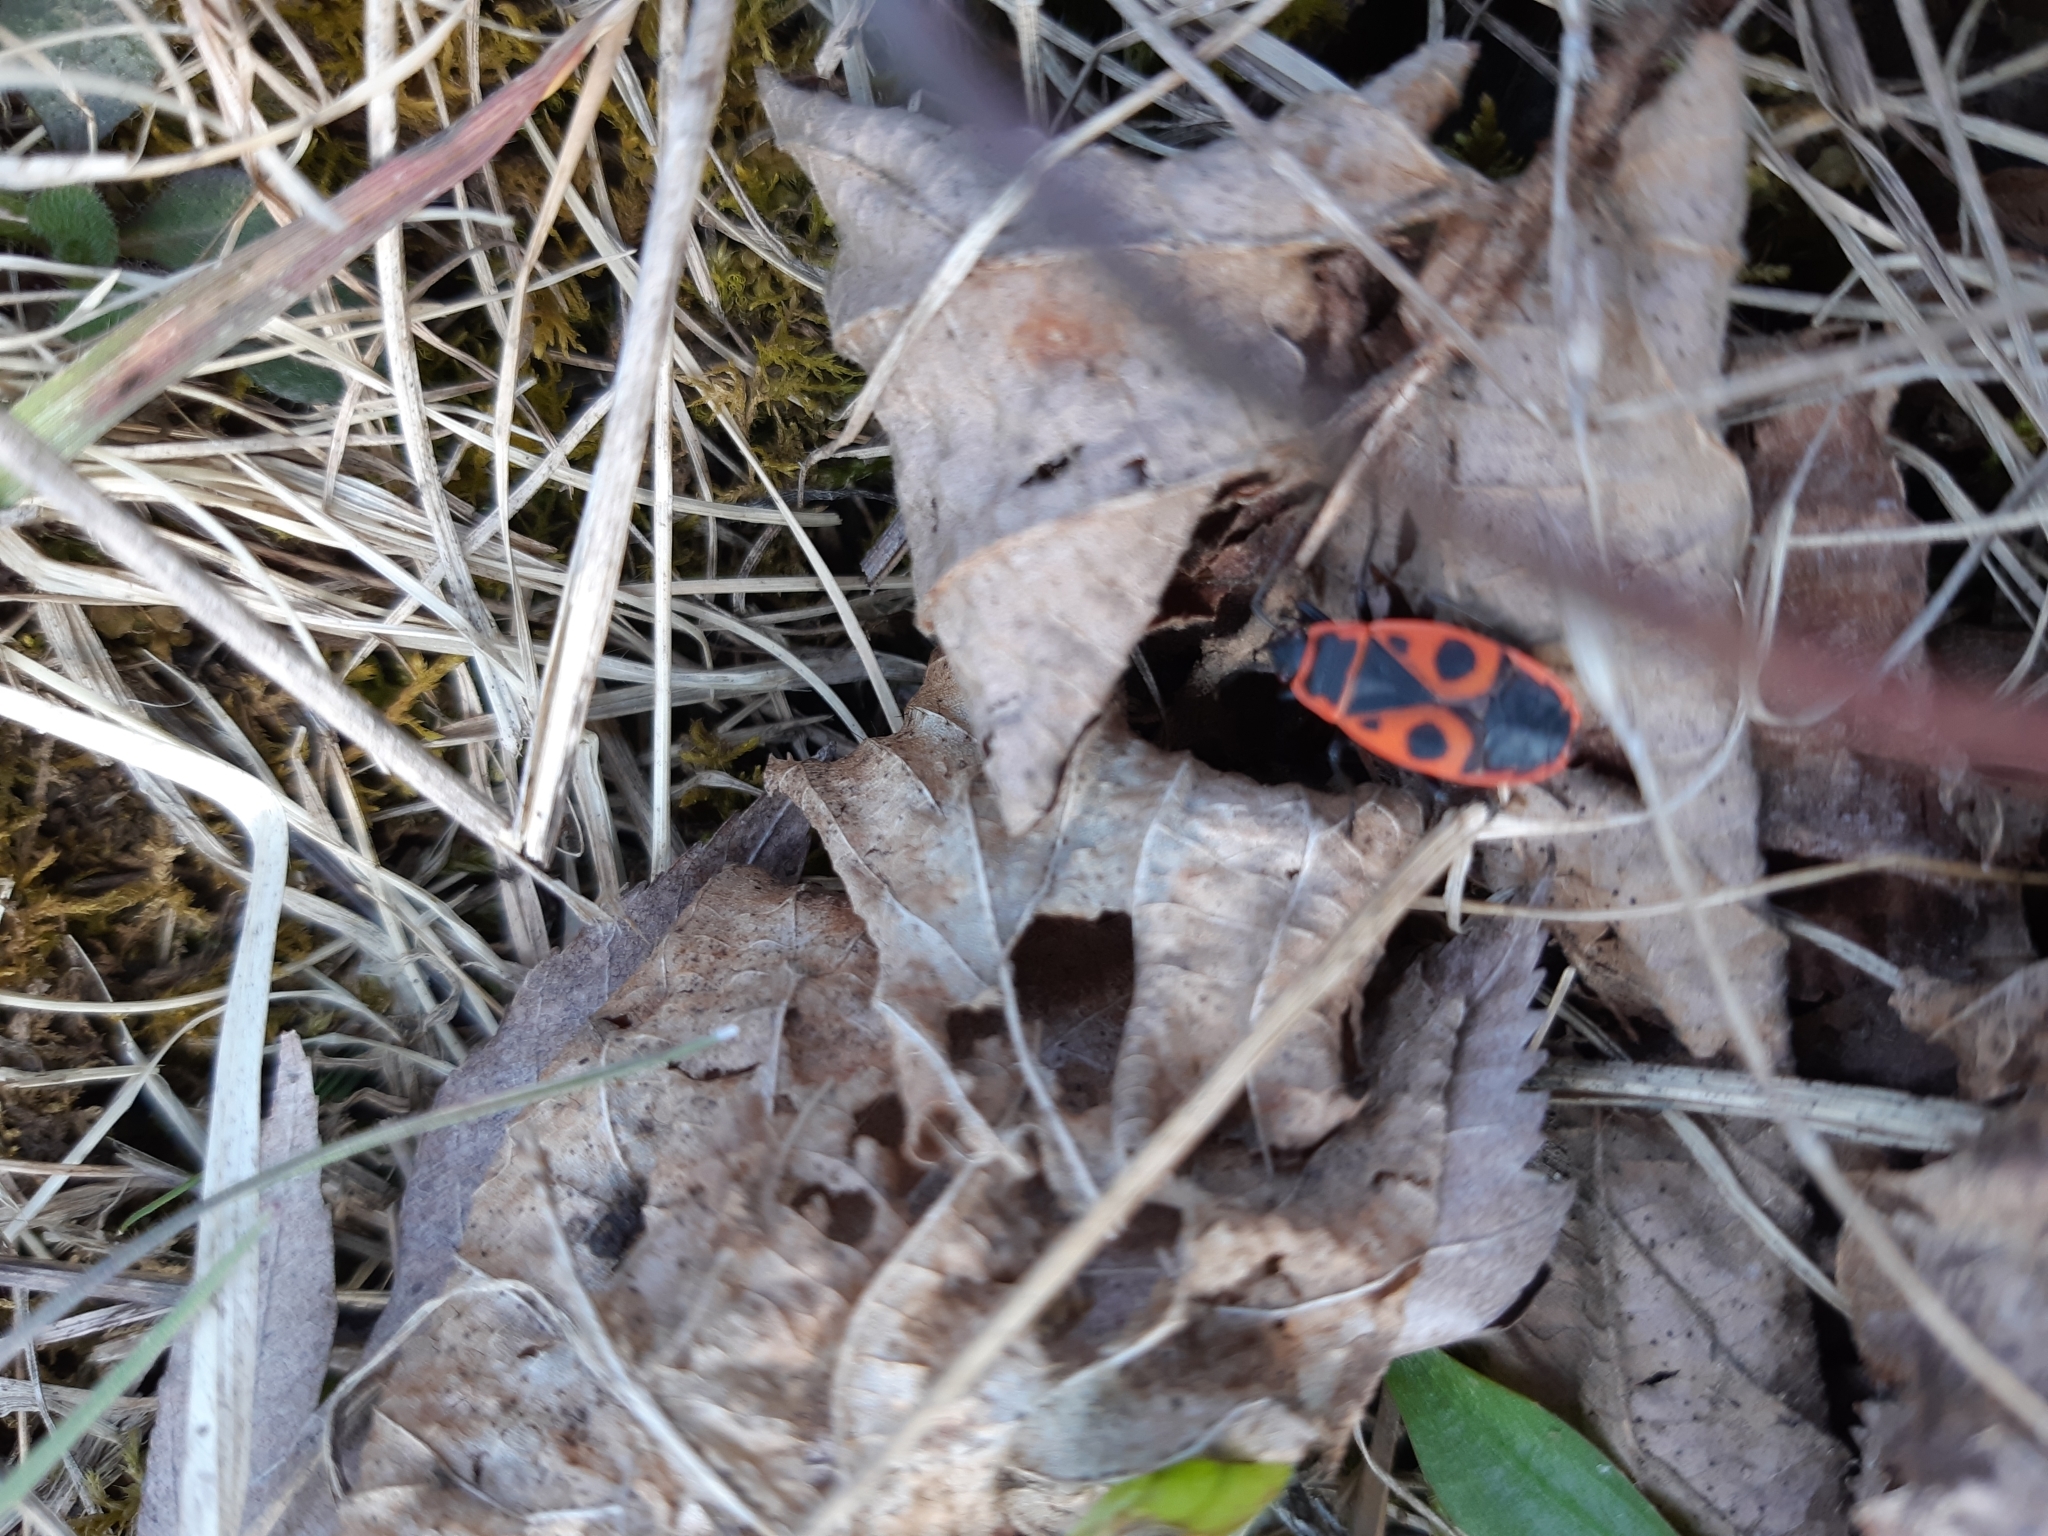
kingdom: Animalia
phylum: Arthropoda
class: Insecta
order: Hemiptera
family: Pyrrhocoridae
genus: Pyrrhocoris
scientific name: Pyrrhocoris apterus
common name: Firebug
